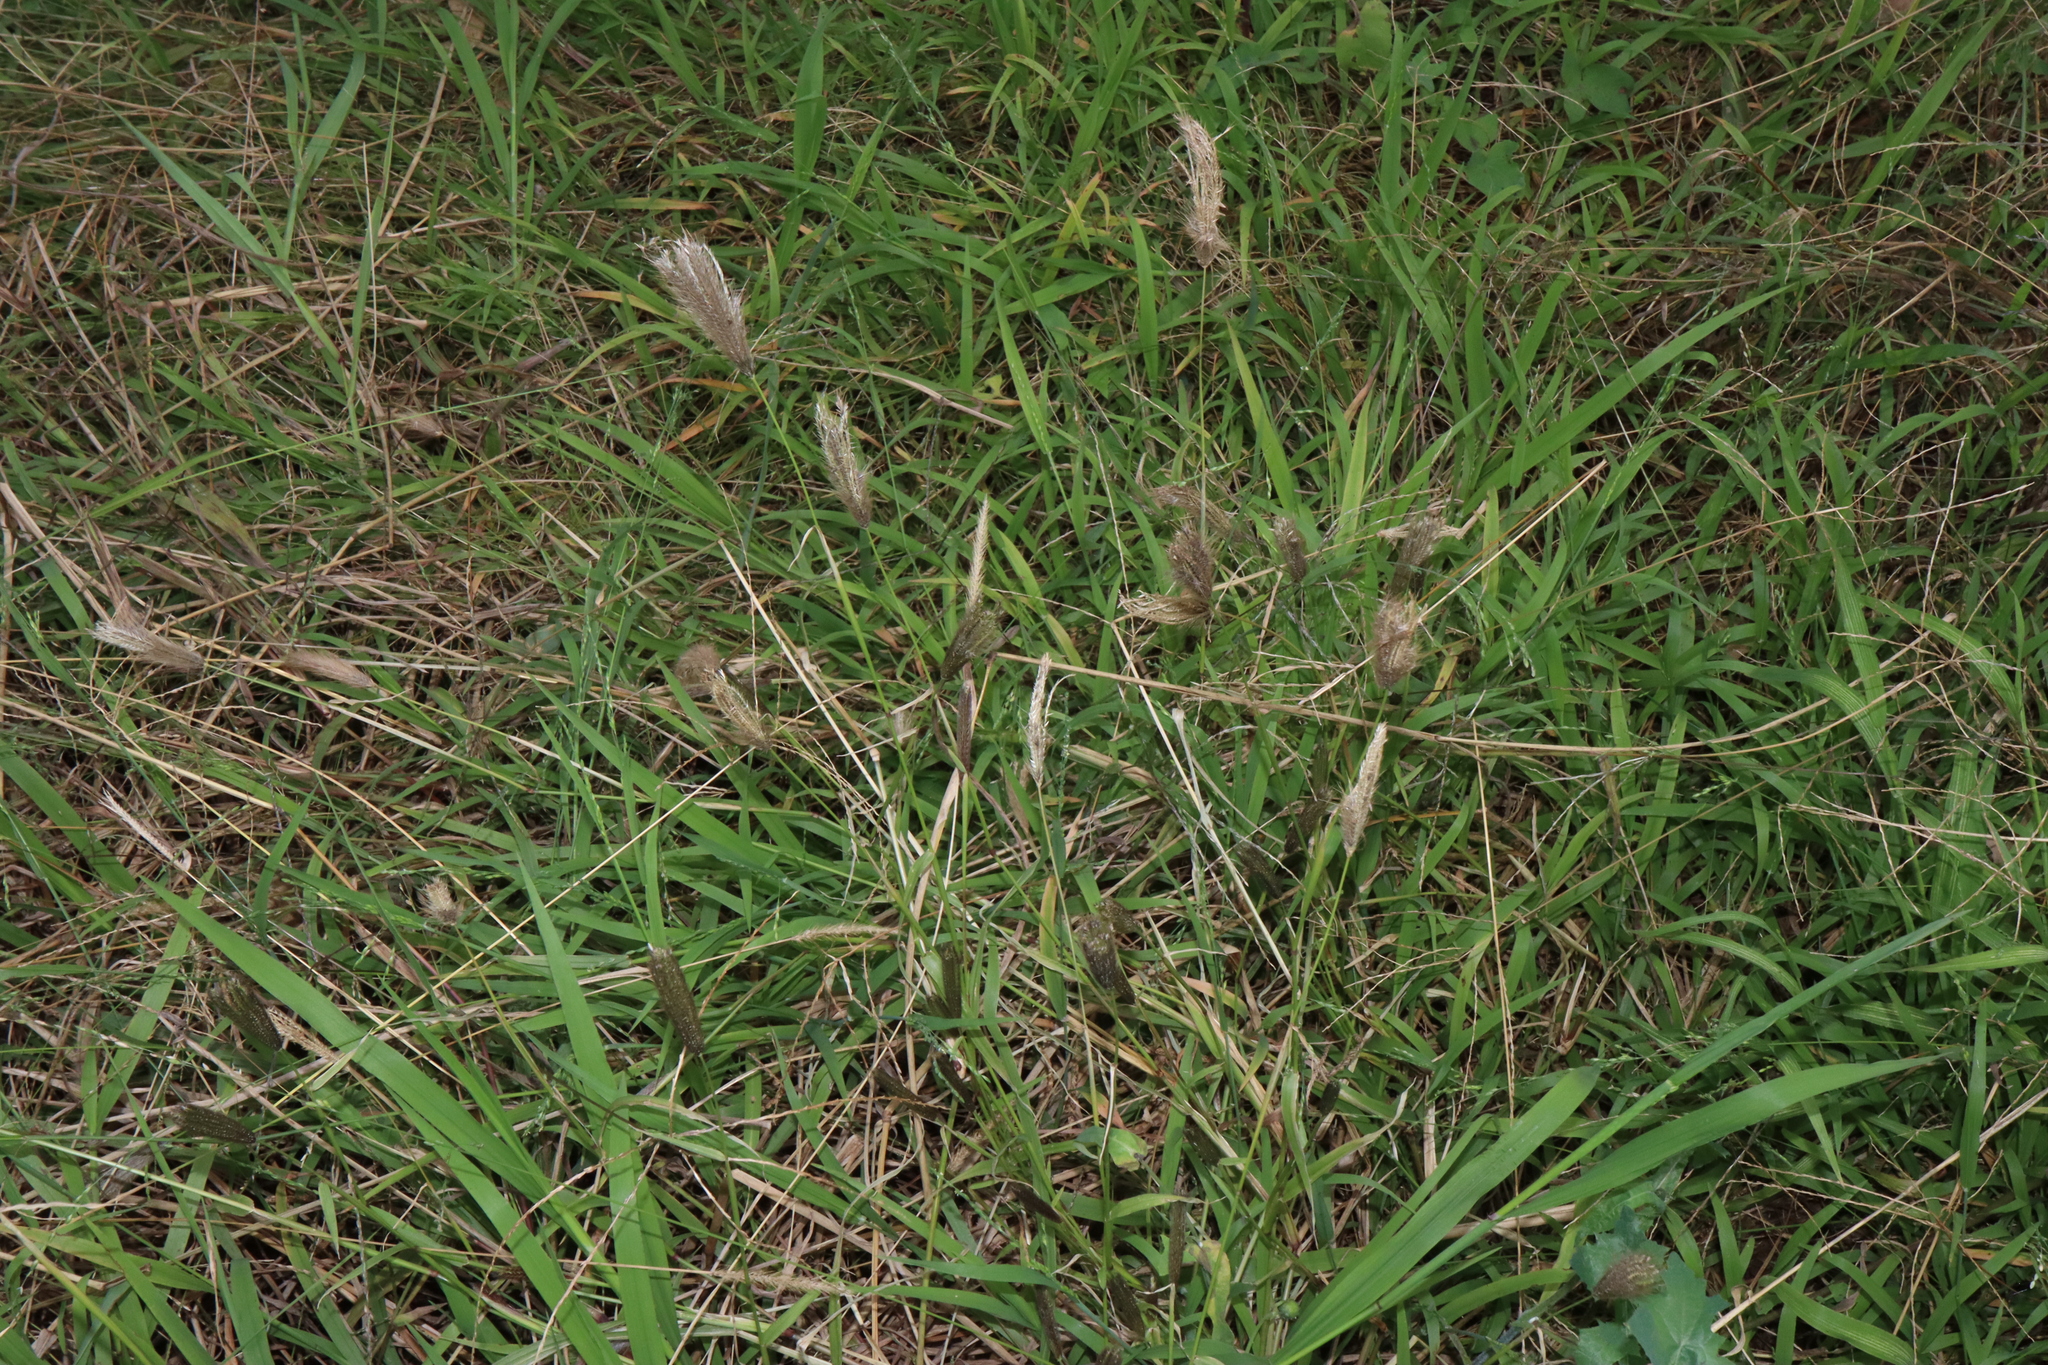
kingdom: Plantae
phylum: Tracheophyta
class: Liliopsida
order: Poales
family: Poaceae
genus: Chloris
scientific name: Chloris virgata
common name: Feathery rhodes-grass
